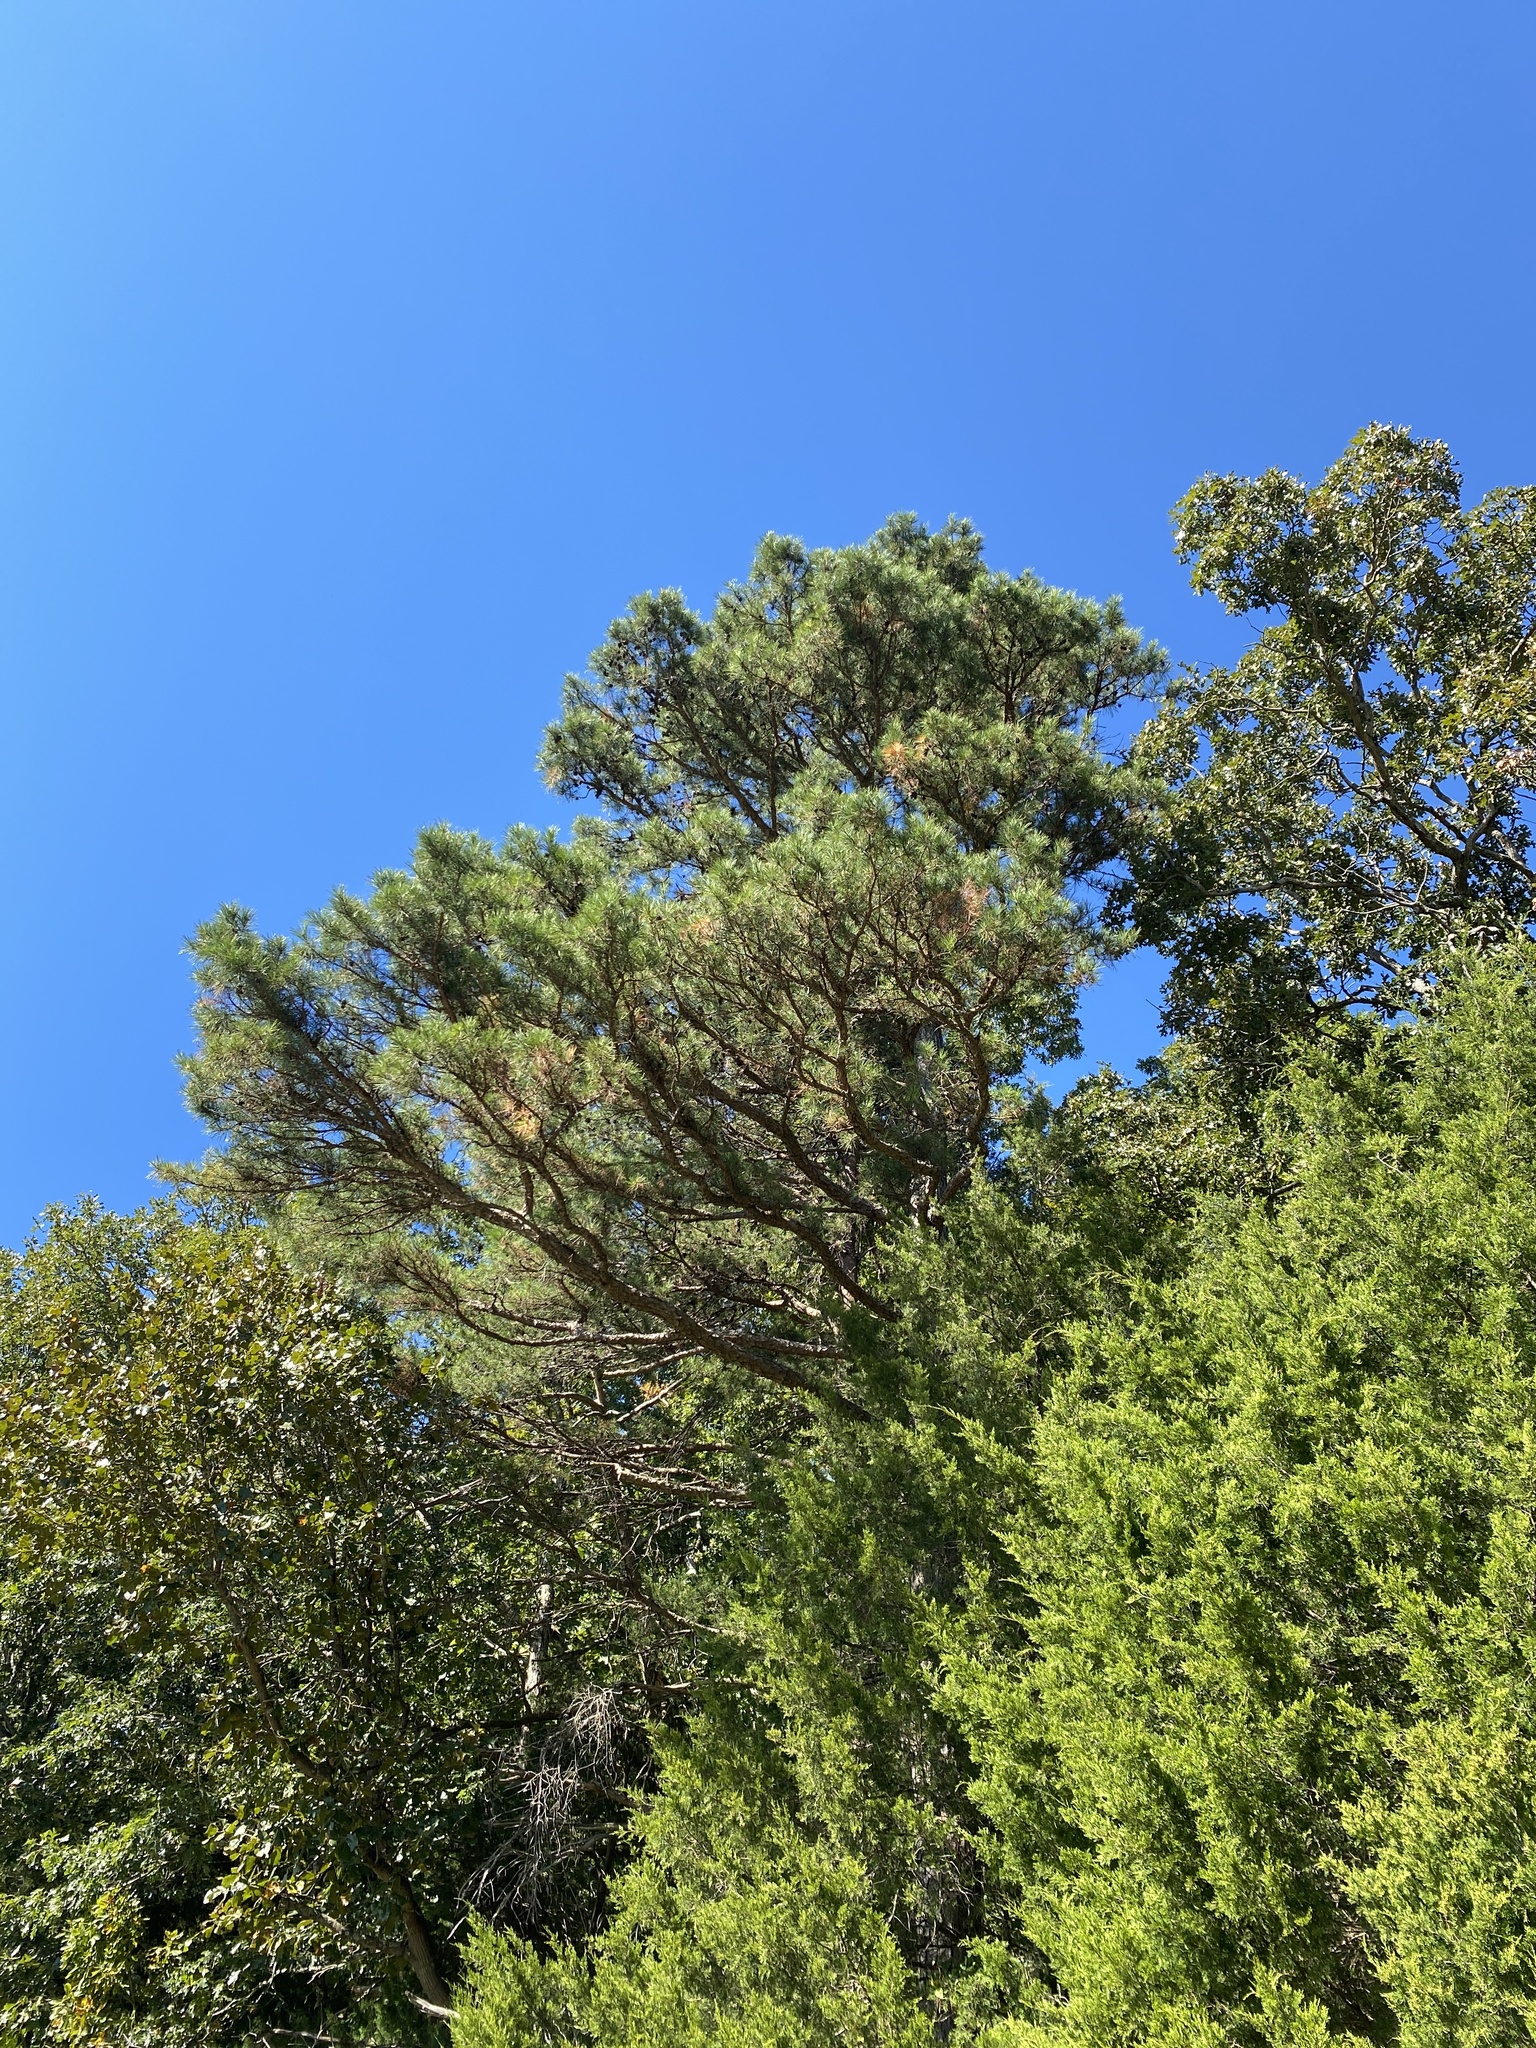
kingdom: Plantae
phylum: Tracheophyta
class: Pinopsida
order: Pinales
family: Pinaceae
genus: Pinus
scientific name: Pinus echinata
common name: Shortleaf pine
